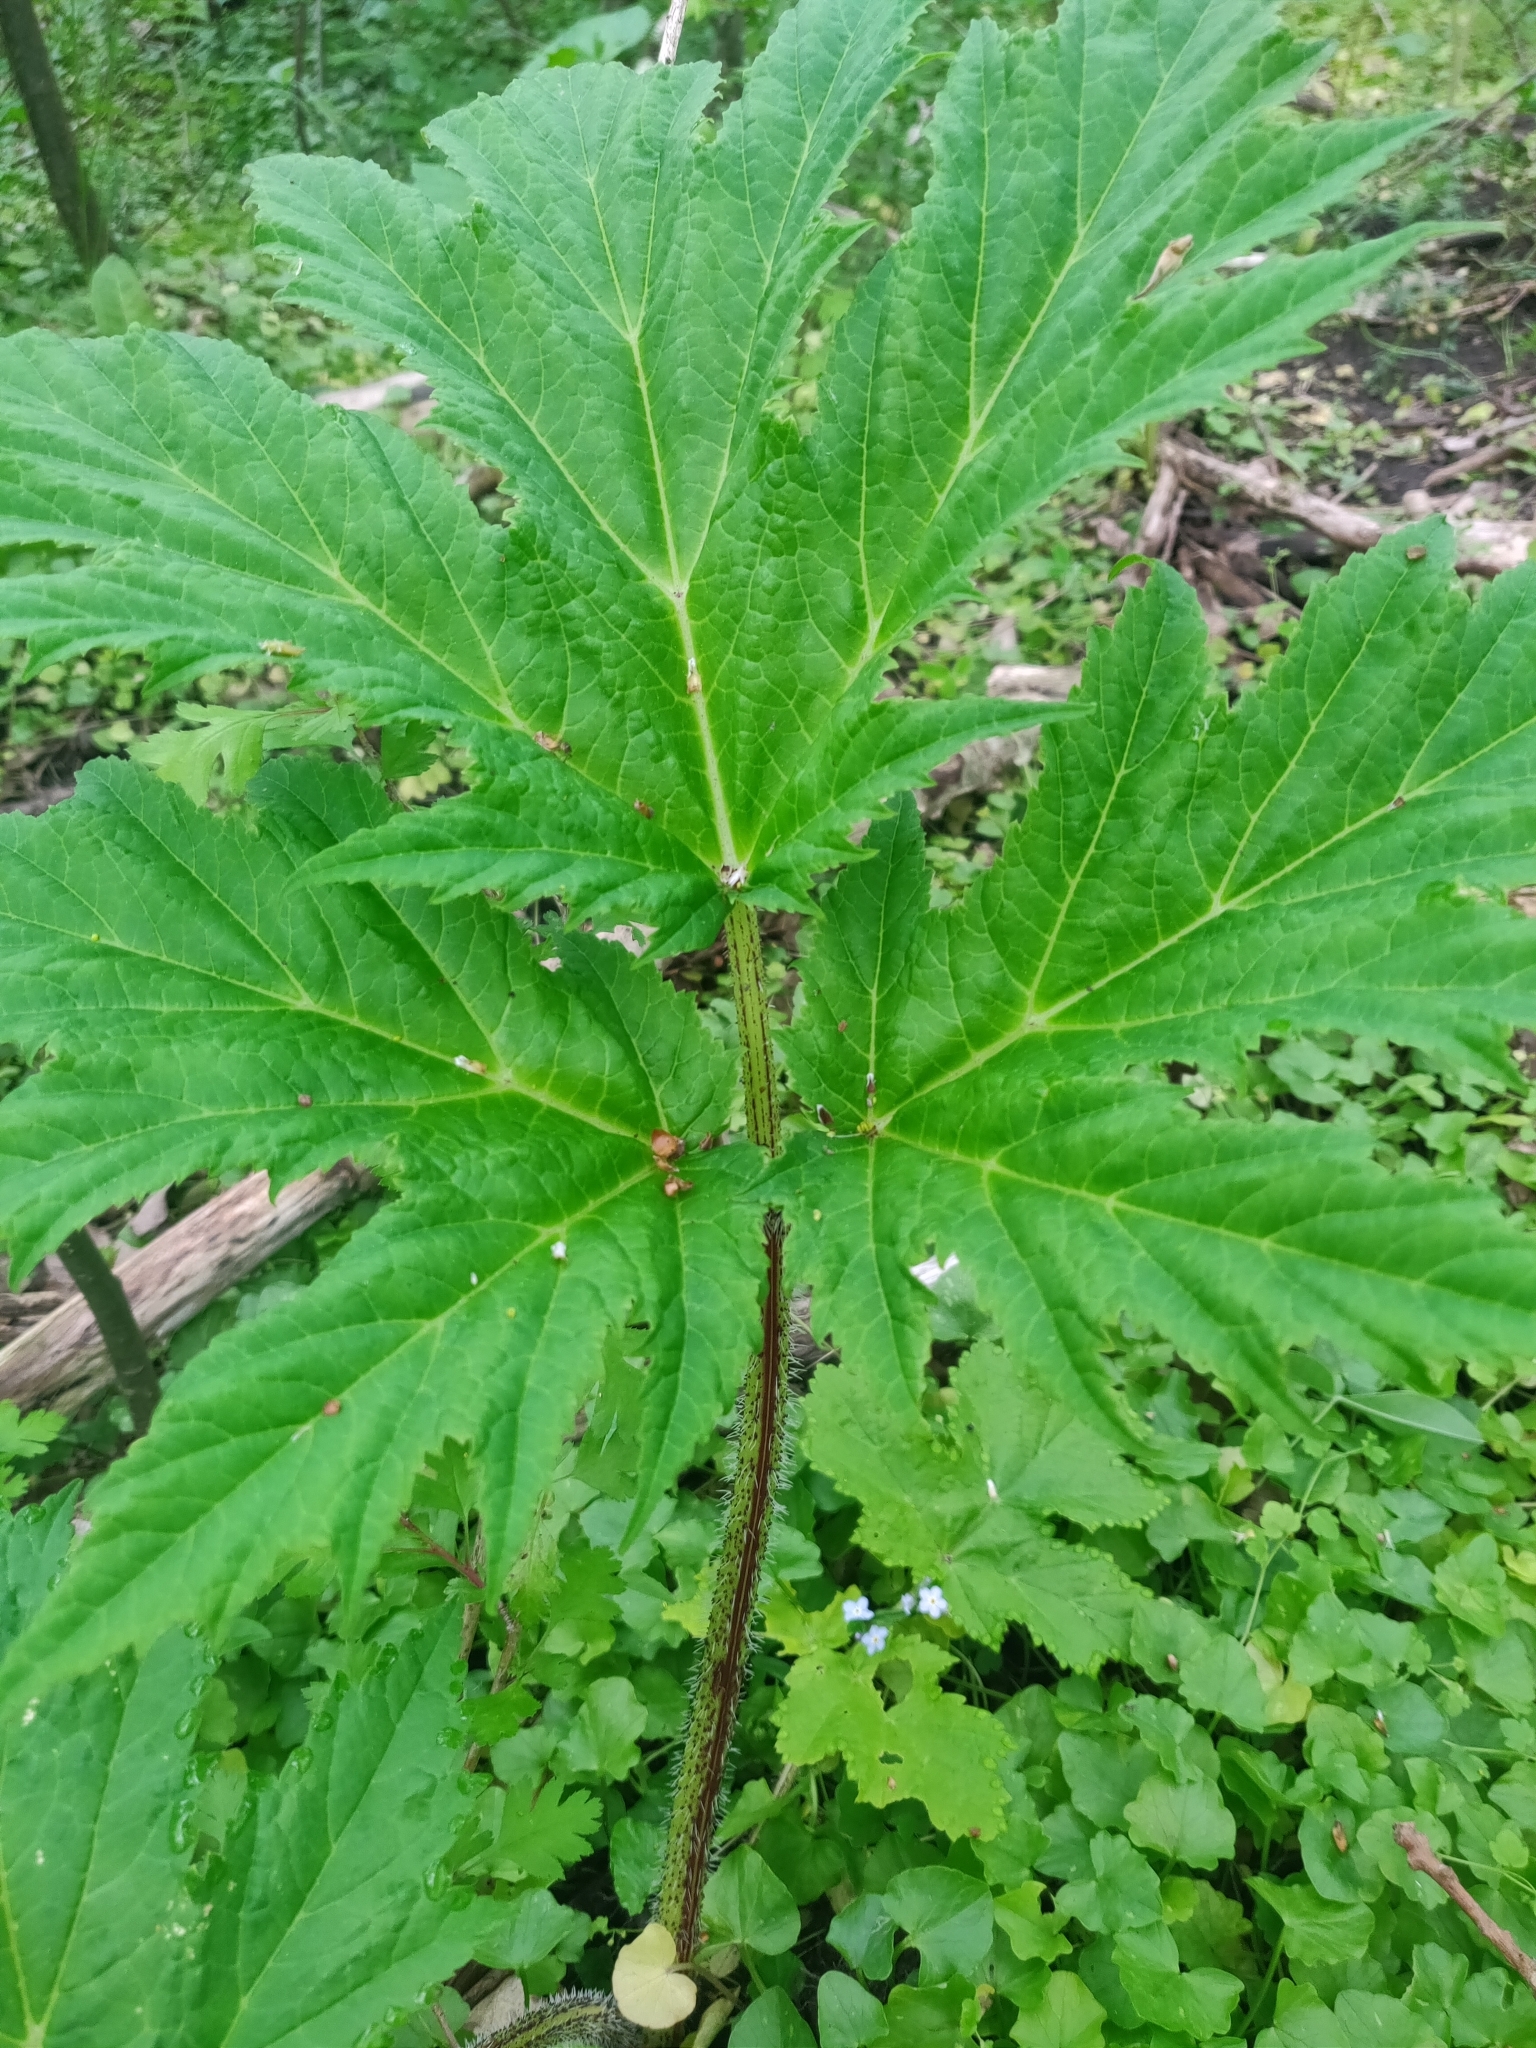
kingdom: Plantae
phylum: Tracheophyta
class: Magnoliopsida
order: Apiales
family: Apiaceae
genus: Heracleum
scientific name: Heracleum mantegazzianum
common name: Giant hogweed
